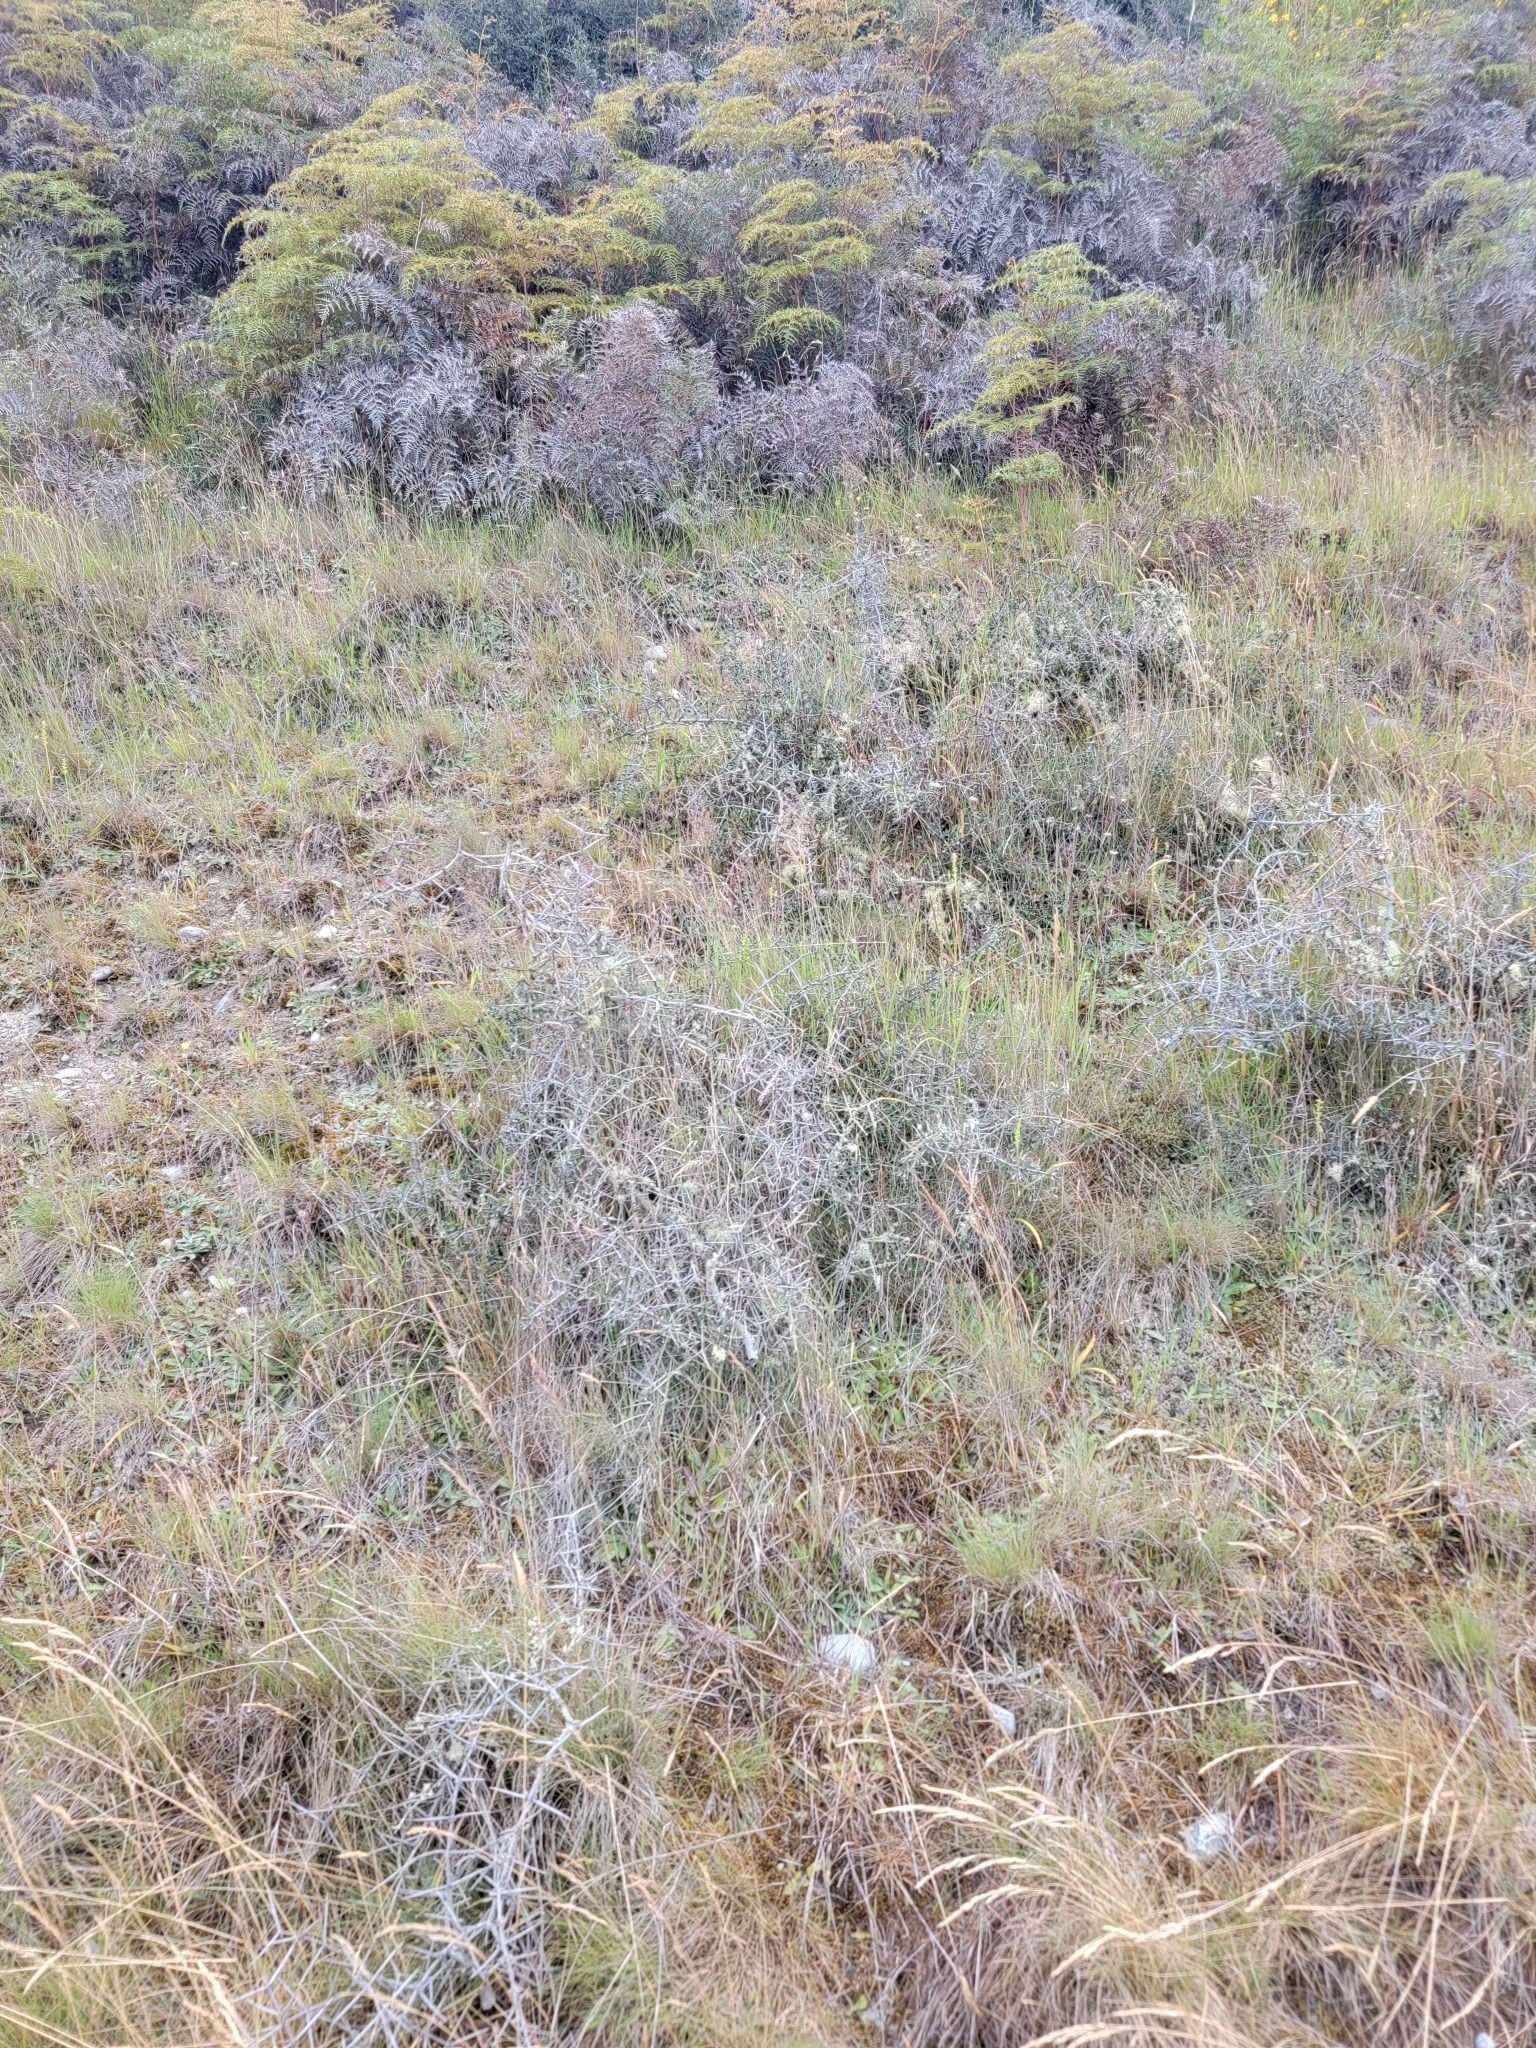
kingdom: Plantae
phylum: Tracheophyta
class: Magnoliopsida
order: Rosales
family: Rhamnaceae
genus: Discaria
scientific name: Discaria toumatou
